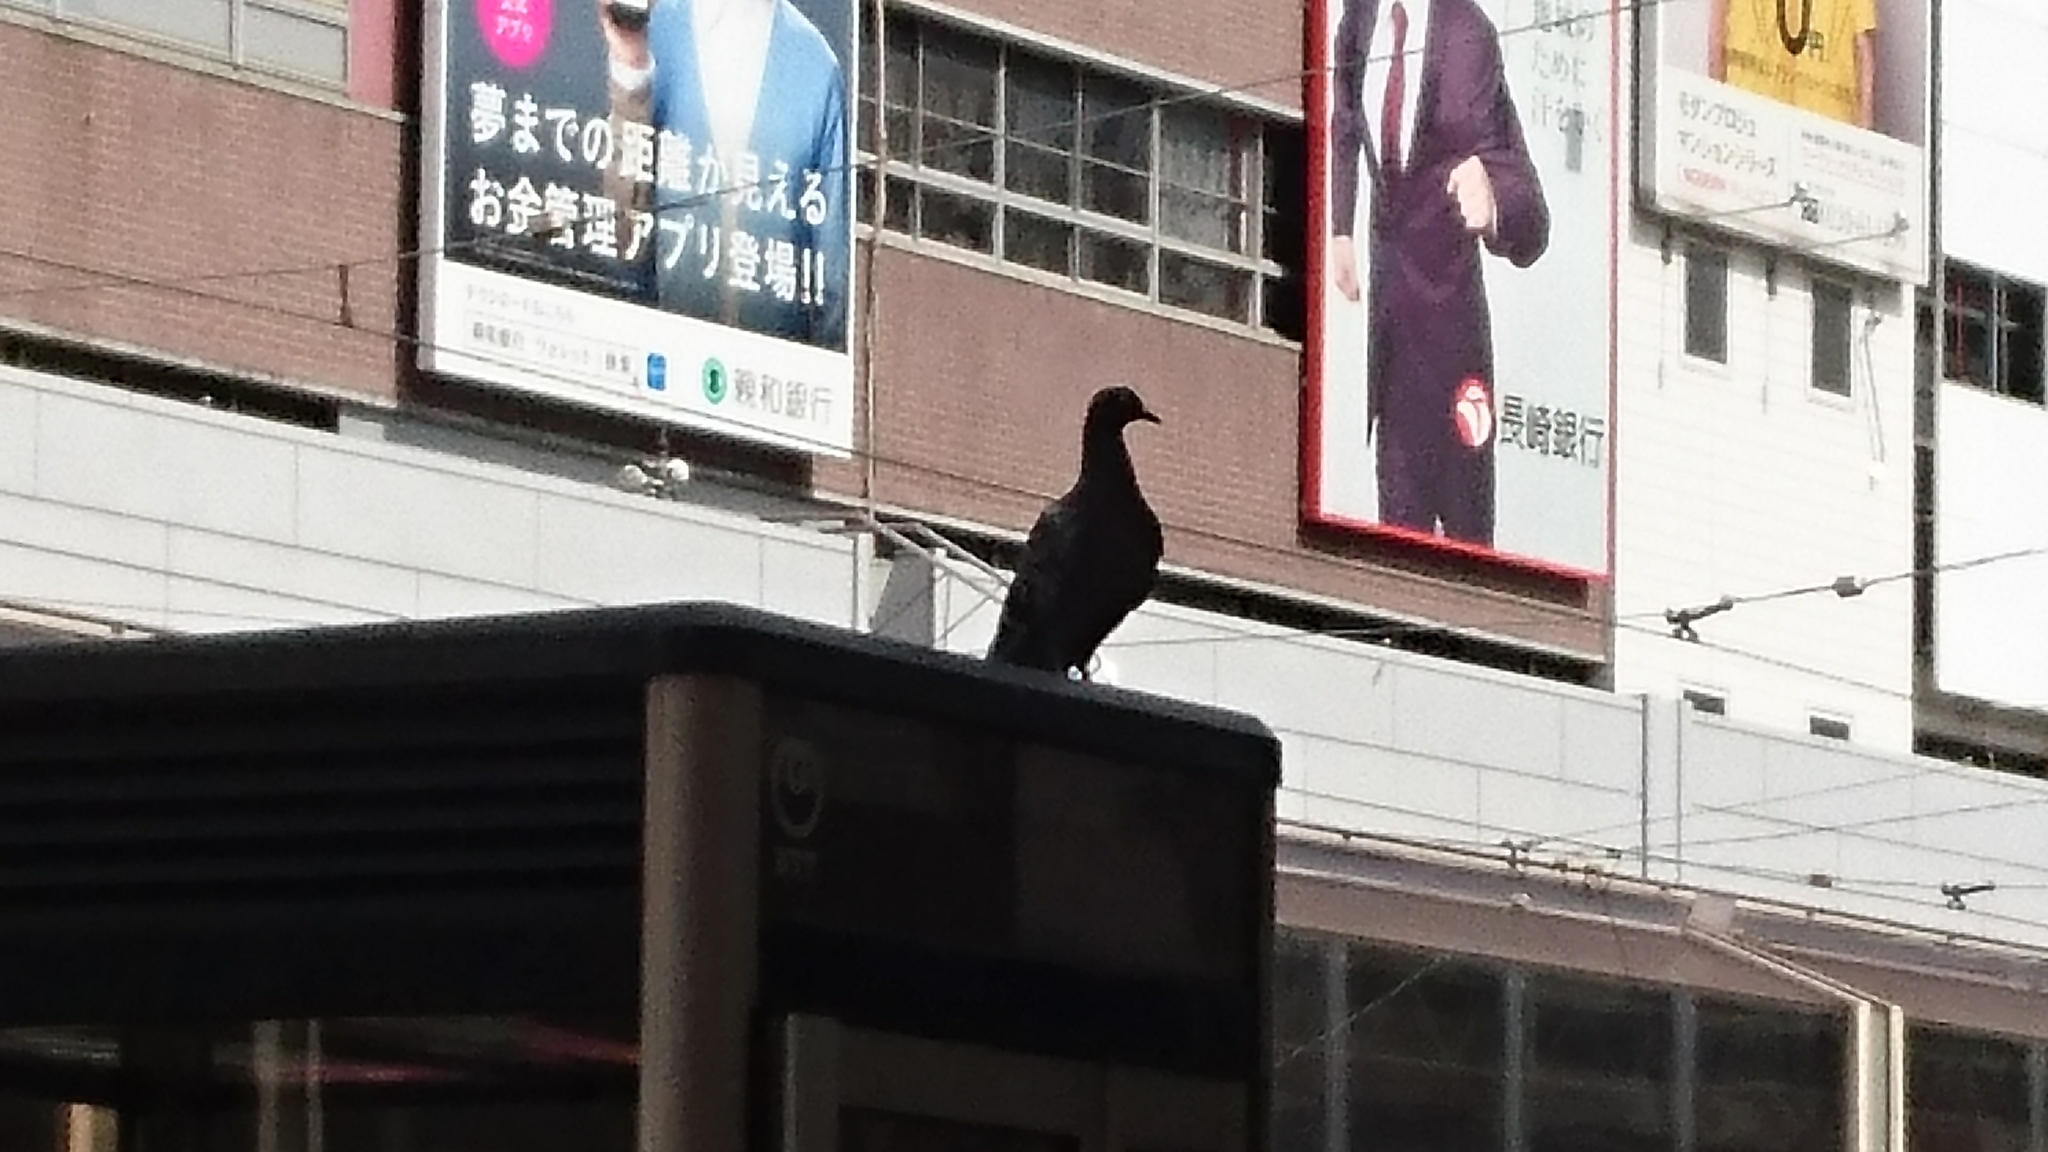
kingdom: Animalia
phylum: Chordata
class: Aves
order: Columbiformes
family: Columbidae
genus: Columba
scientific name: Columba livia
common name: Rock pigeon
